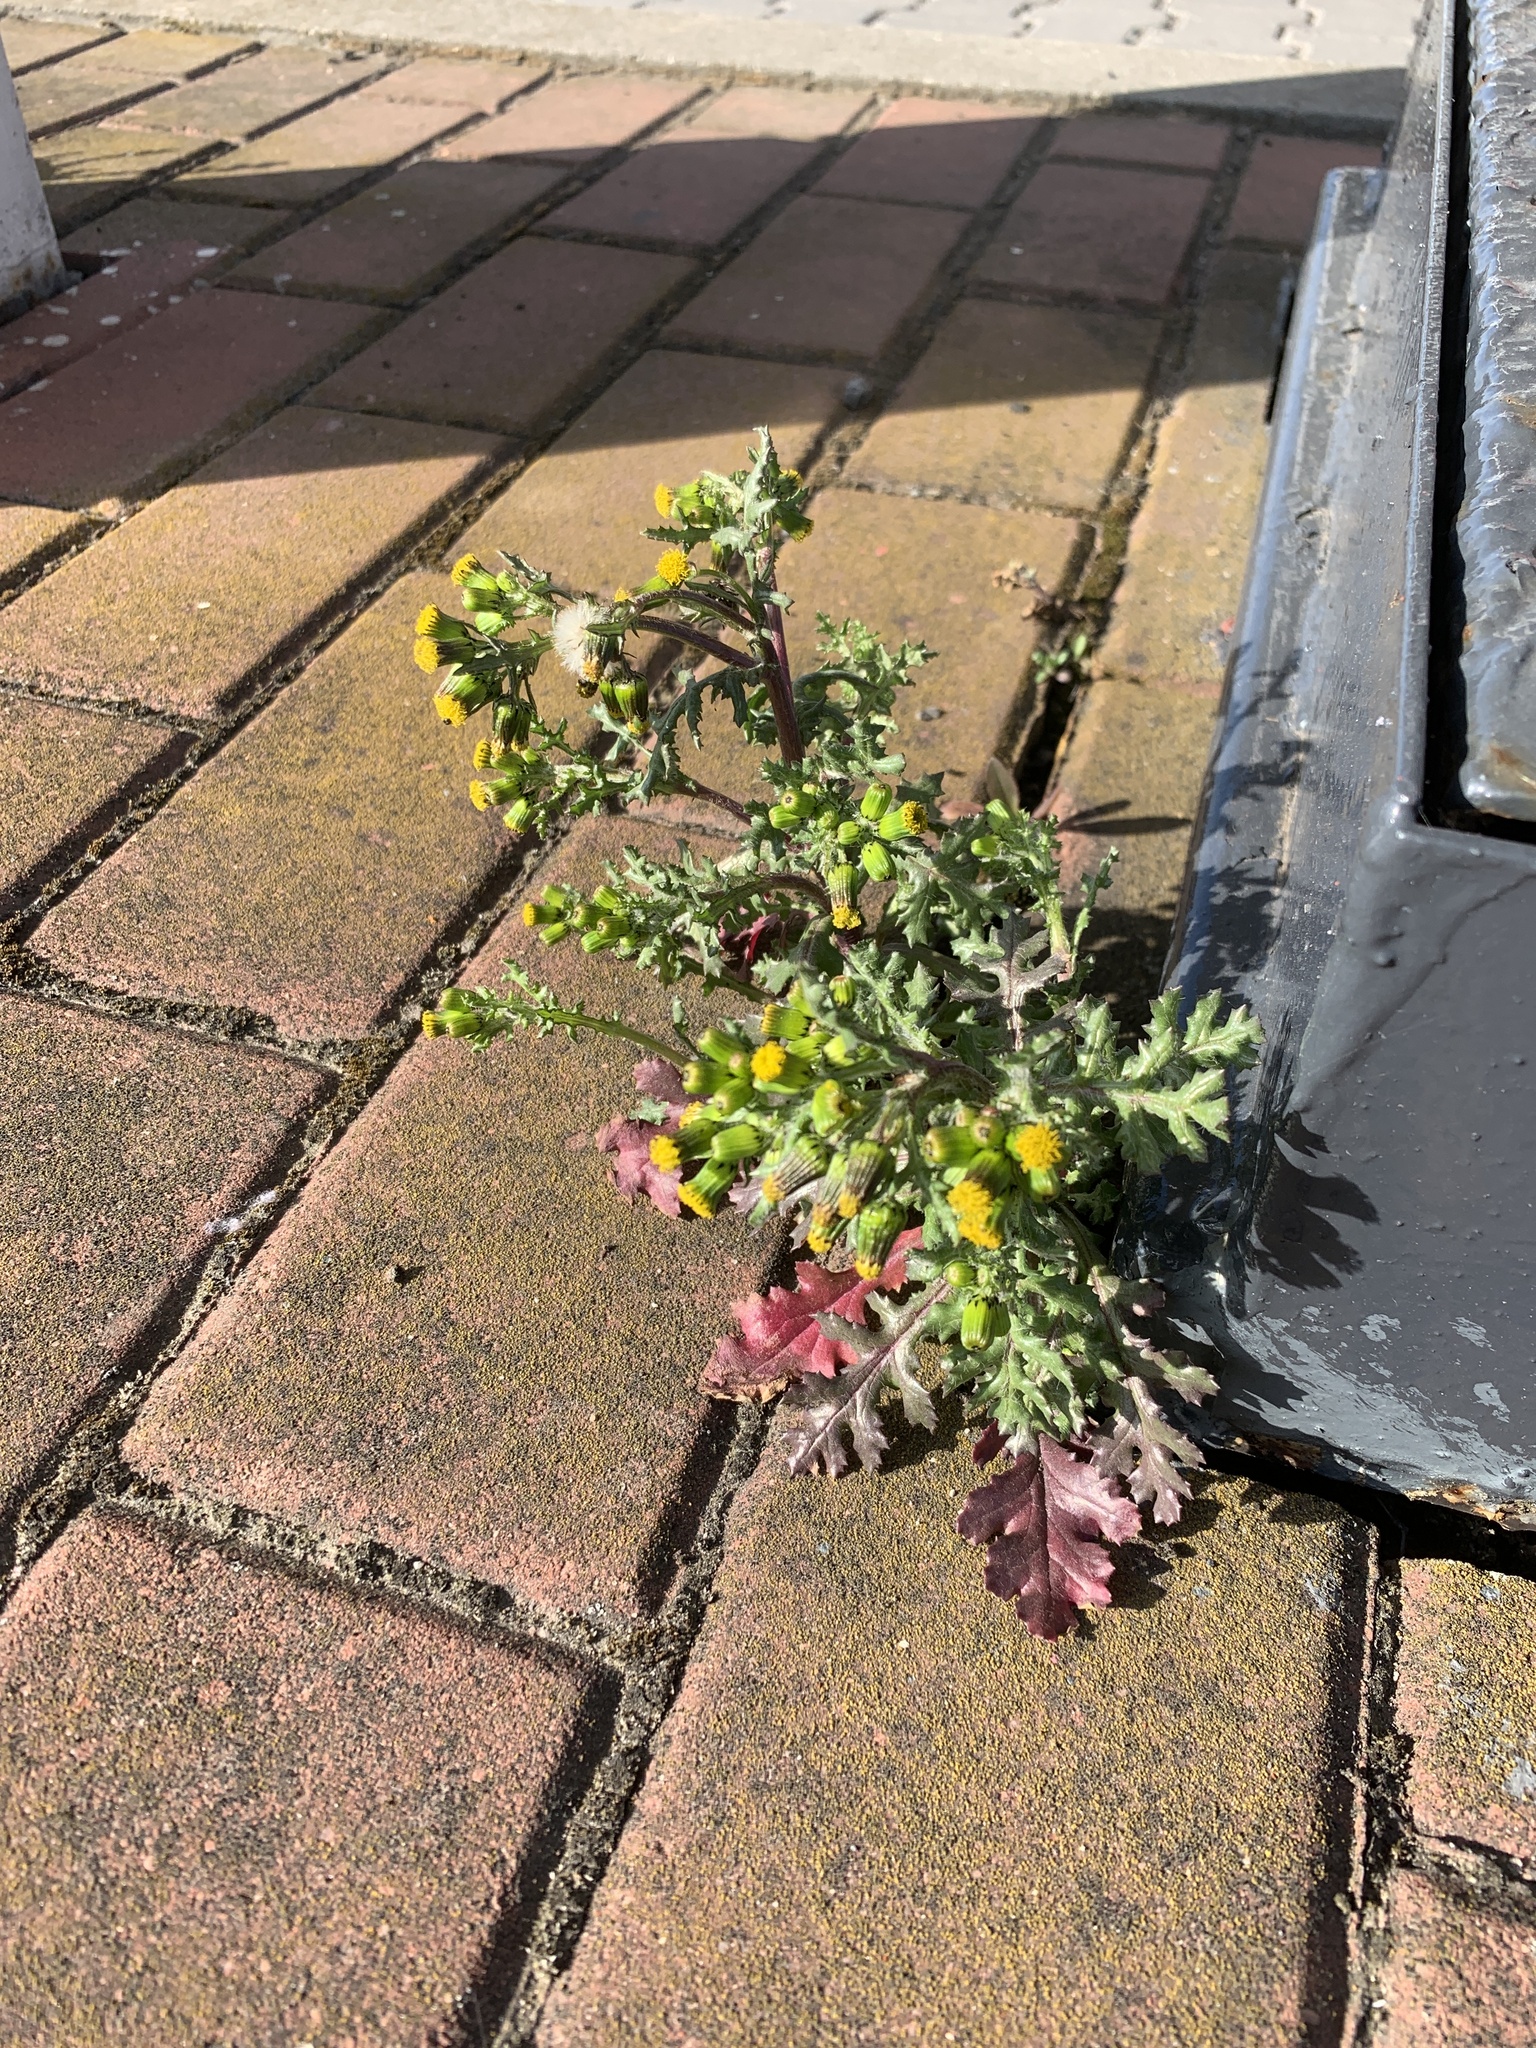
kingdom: Plantae
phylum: Tracheophyta
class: Magnoliopsida
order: Asterales
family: Asteraceae
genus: Senecio
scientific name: Senecio vulgaris
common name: Old-man-in-the-spring
